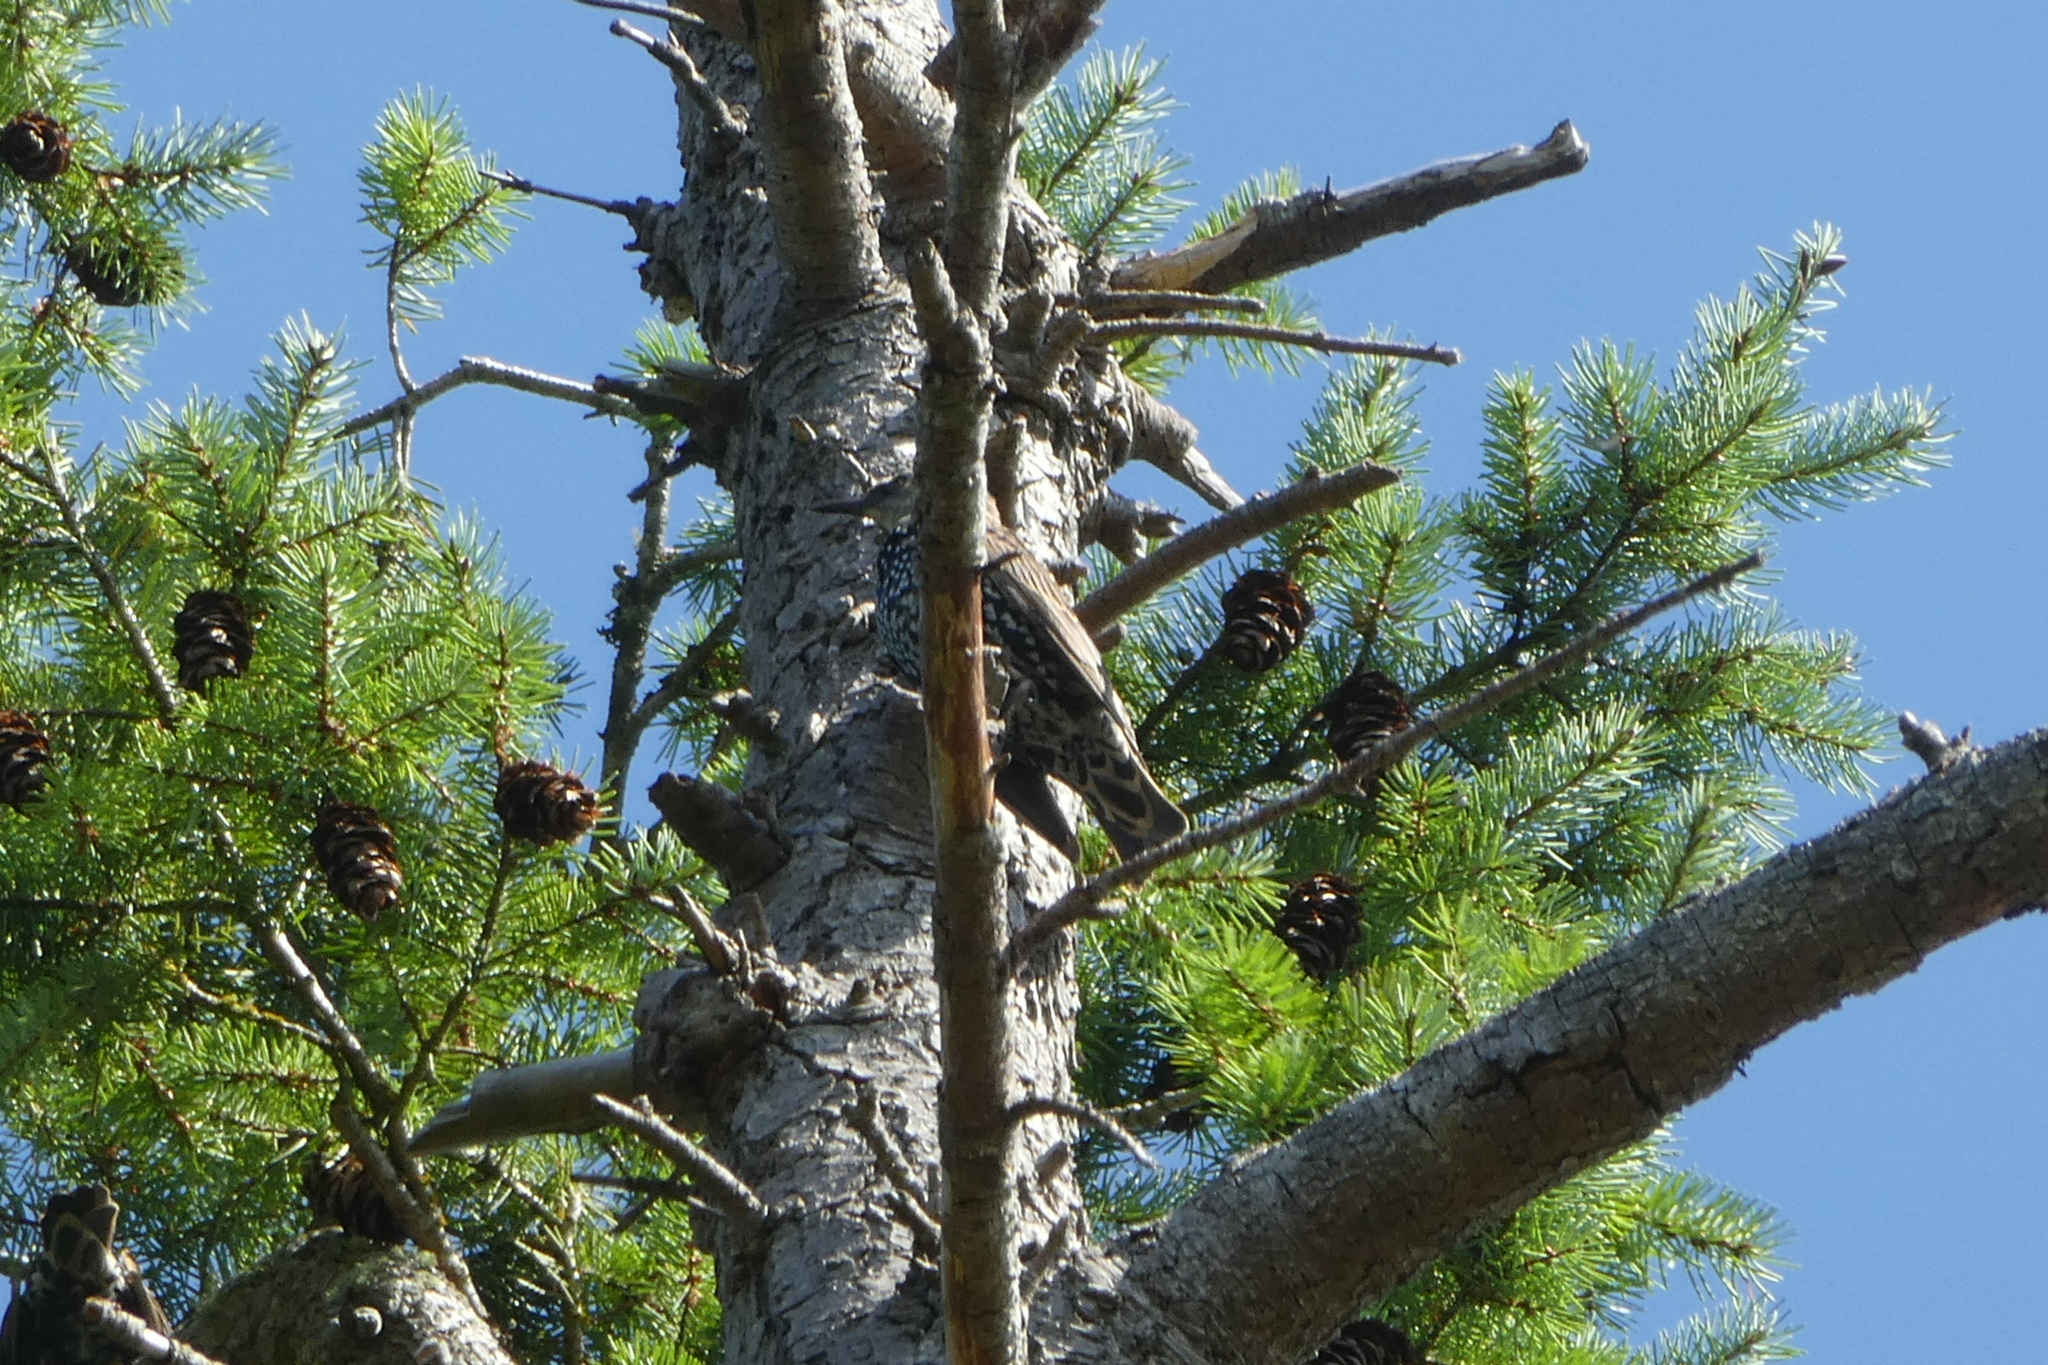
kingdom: Animalia
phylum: Chordata
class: Aves
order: Passeriformes
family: Sturnidae
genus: Sturnus
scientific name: Sturnus vulgaris
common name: Common starling
